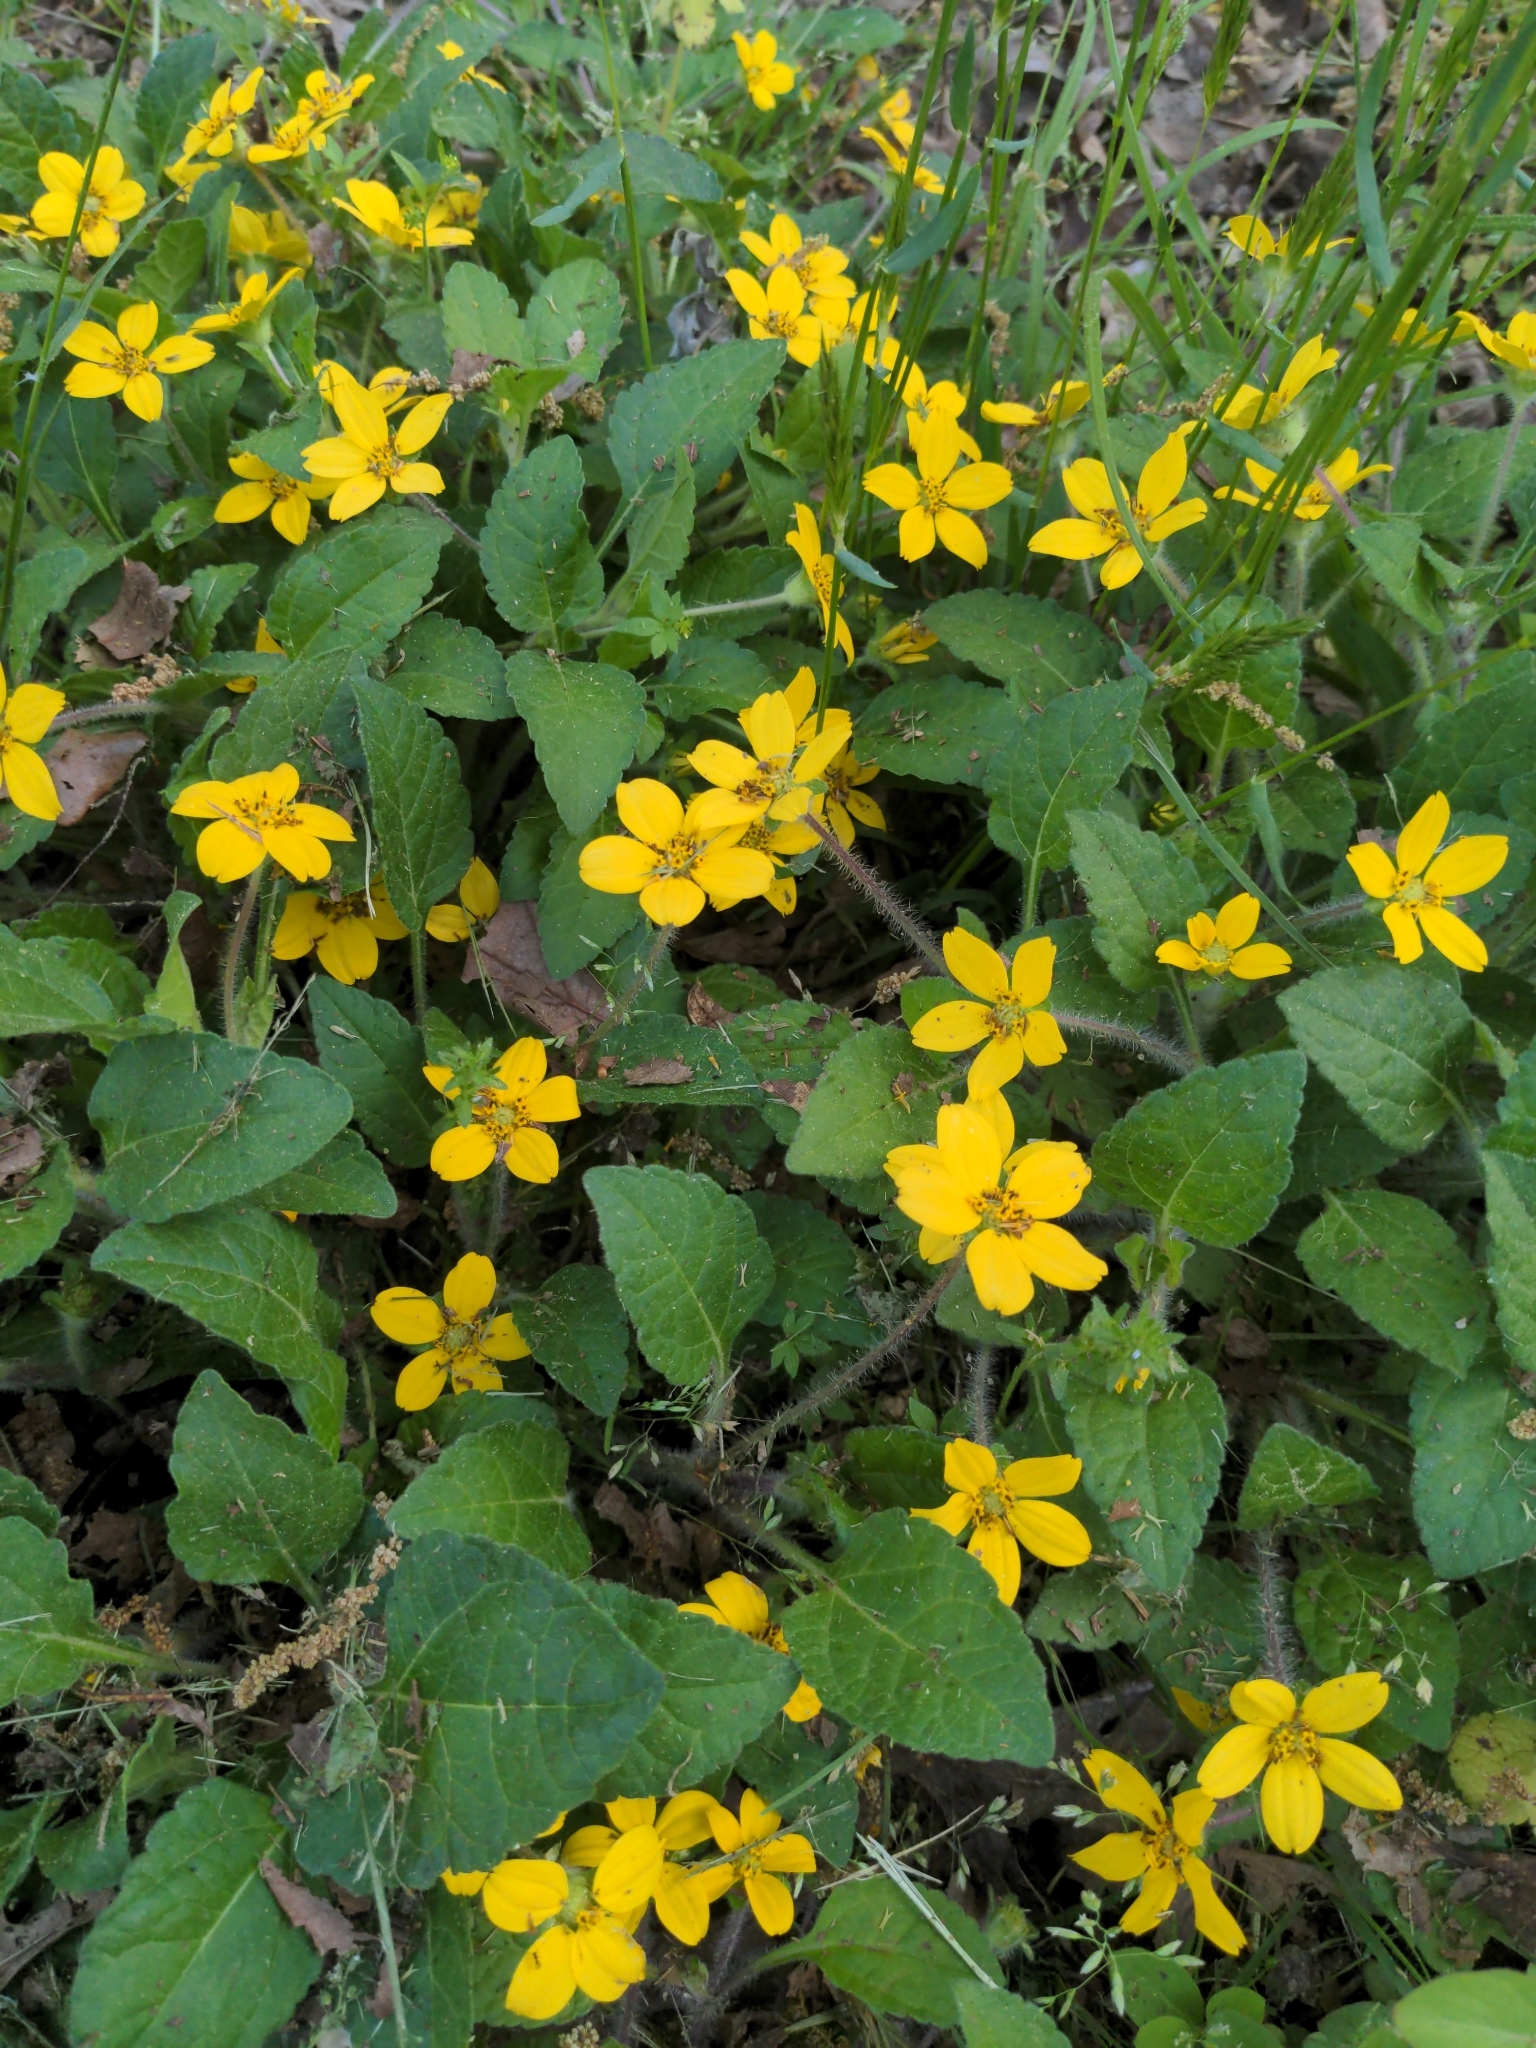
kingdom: Plantae
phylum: Tracheophyta
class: Magnoliopsida
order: Asterales
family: Asteraceae
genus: Chrysogonum
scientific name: Chrysogonum virginianum
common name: Golden-knee
